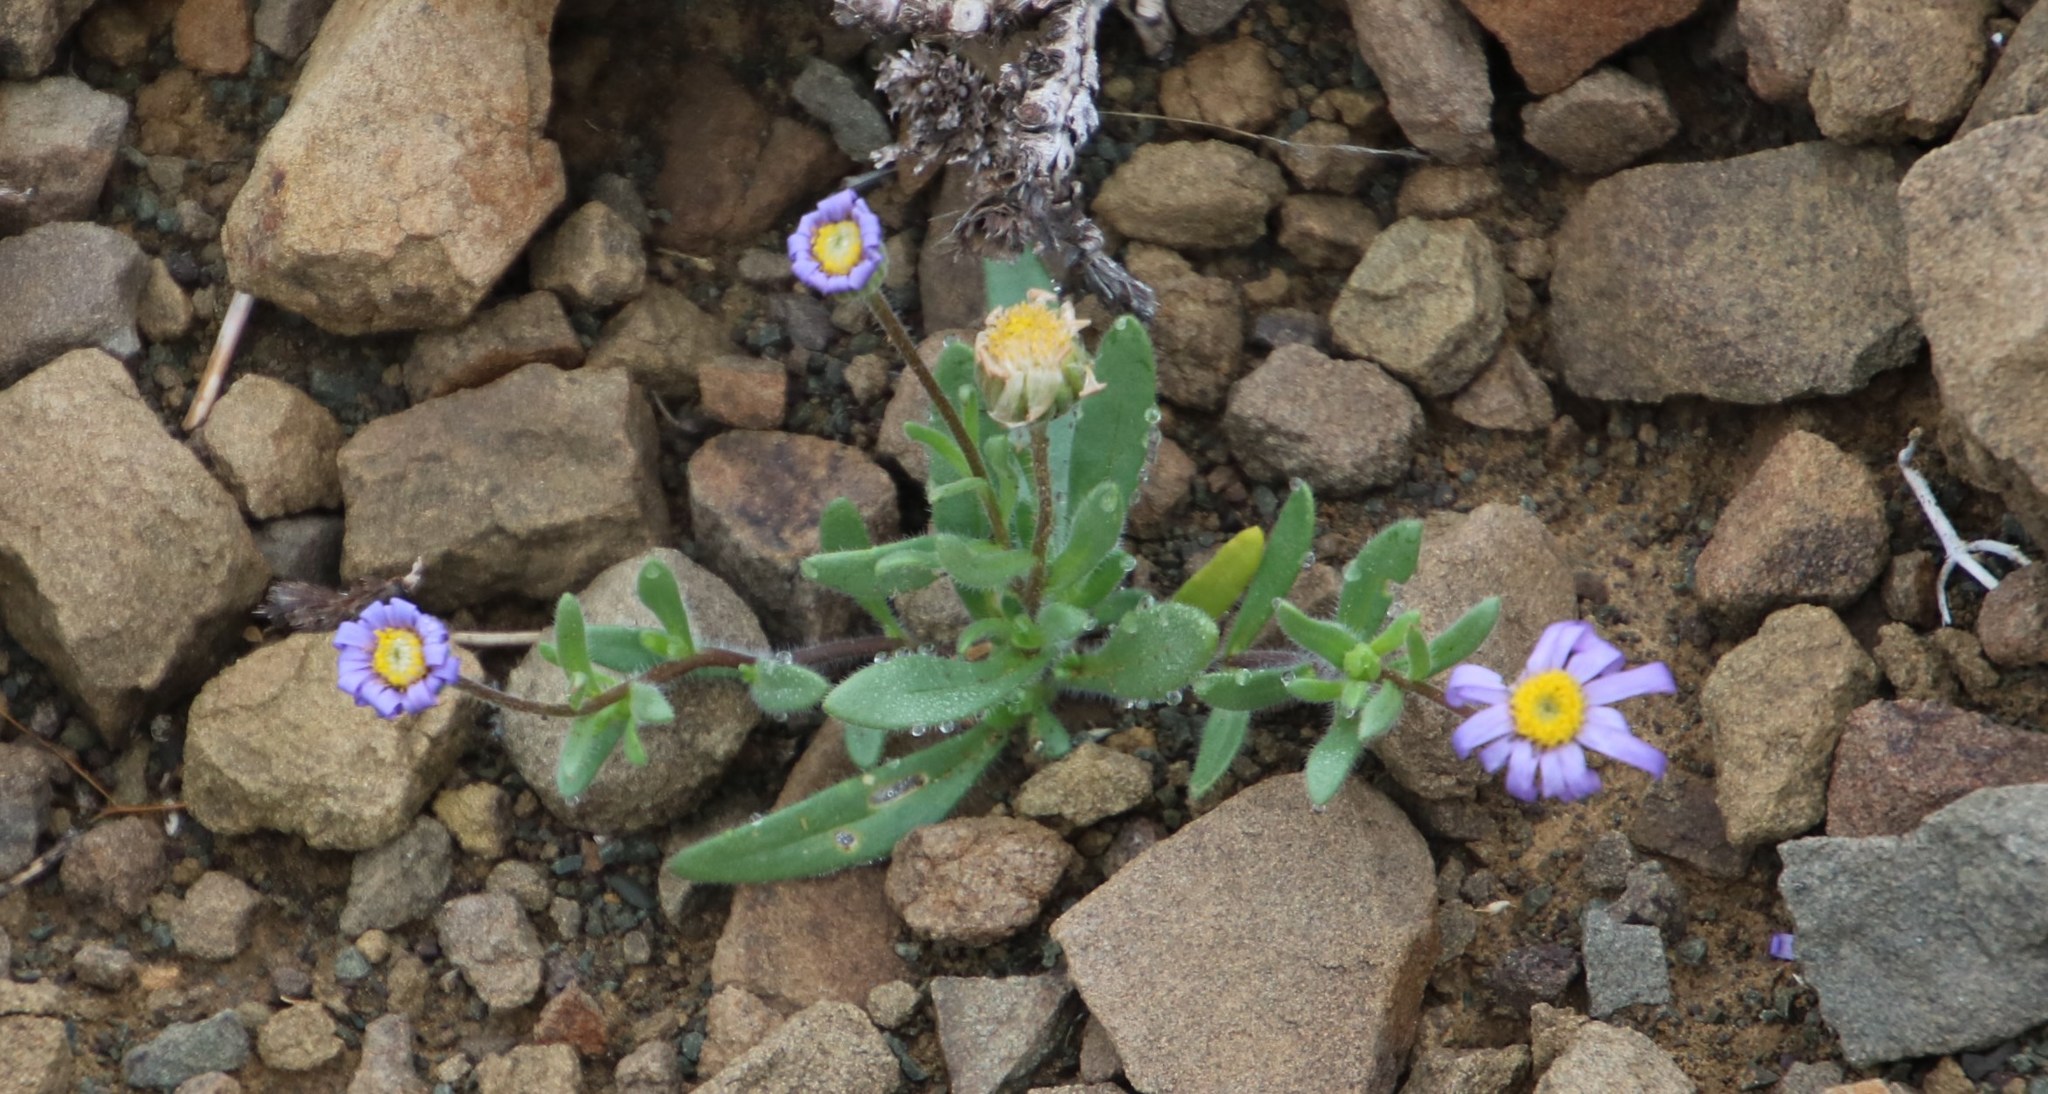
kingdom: Plantae
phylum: Tracheophyta
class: Magnoliopsida
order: Asterales
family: Asteraceae
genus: Felicia
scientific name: Felicia namaquana
